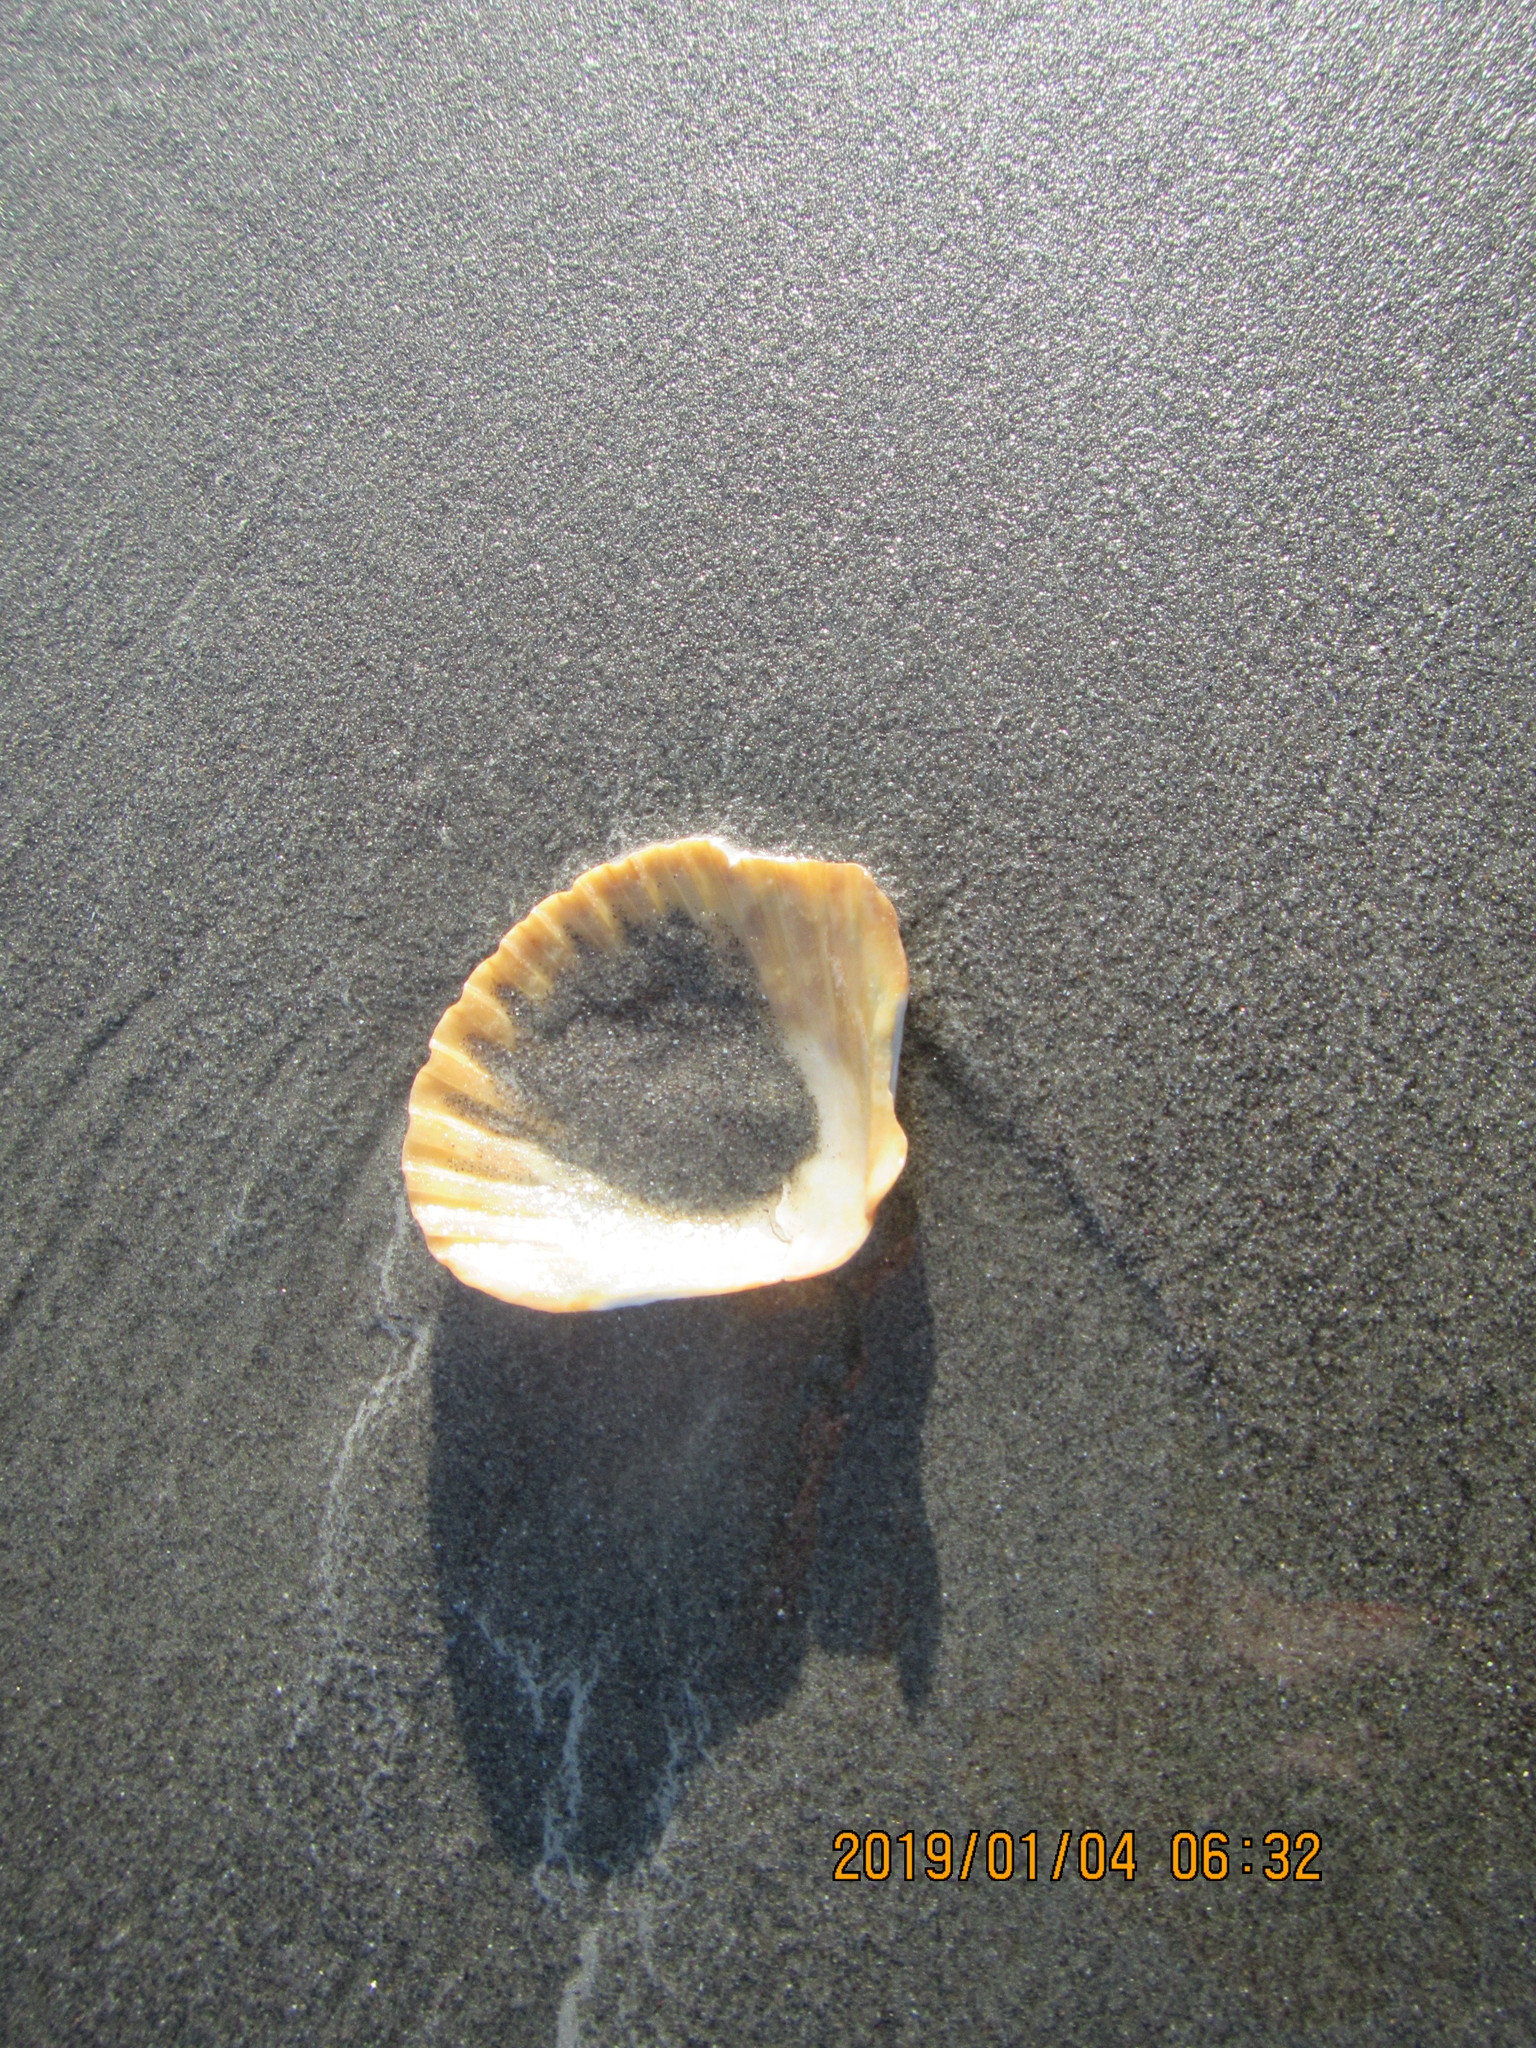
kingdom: Animalia
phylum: Mollusca
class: Bivalvia
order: Pectinida
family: Pectinidae
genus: Pecten
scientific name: Pecten novaezelandiae
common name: New zealand scallop
